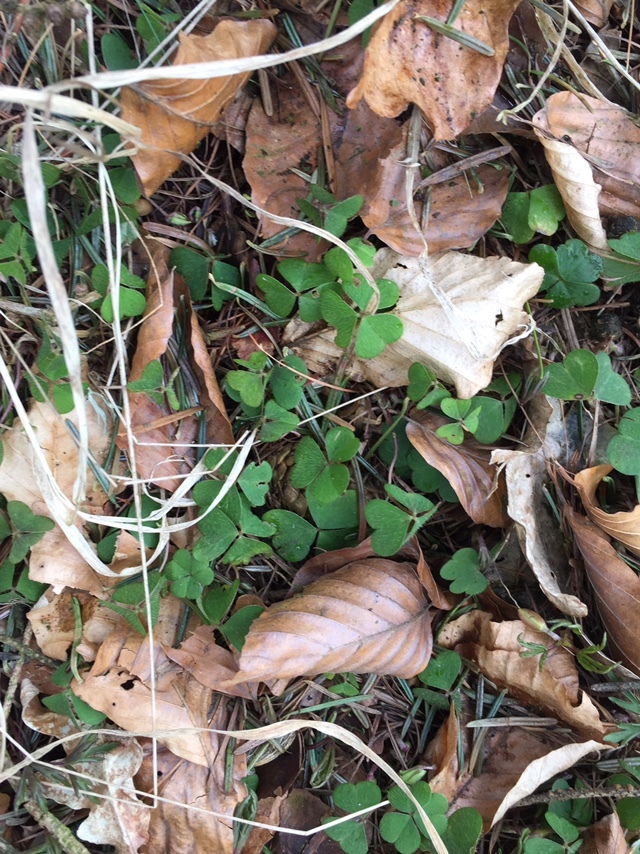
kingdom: Plantae
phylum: Tracheophyta
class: Magnoliopsida
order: Oxalidales
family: Oxalidaceae
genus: Oxalis
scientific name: Oxalis acetosella
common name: Wood-sorrel
